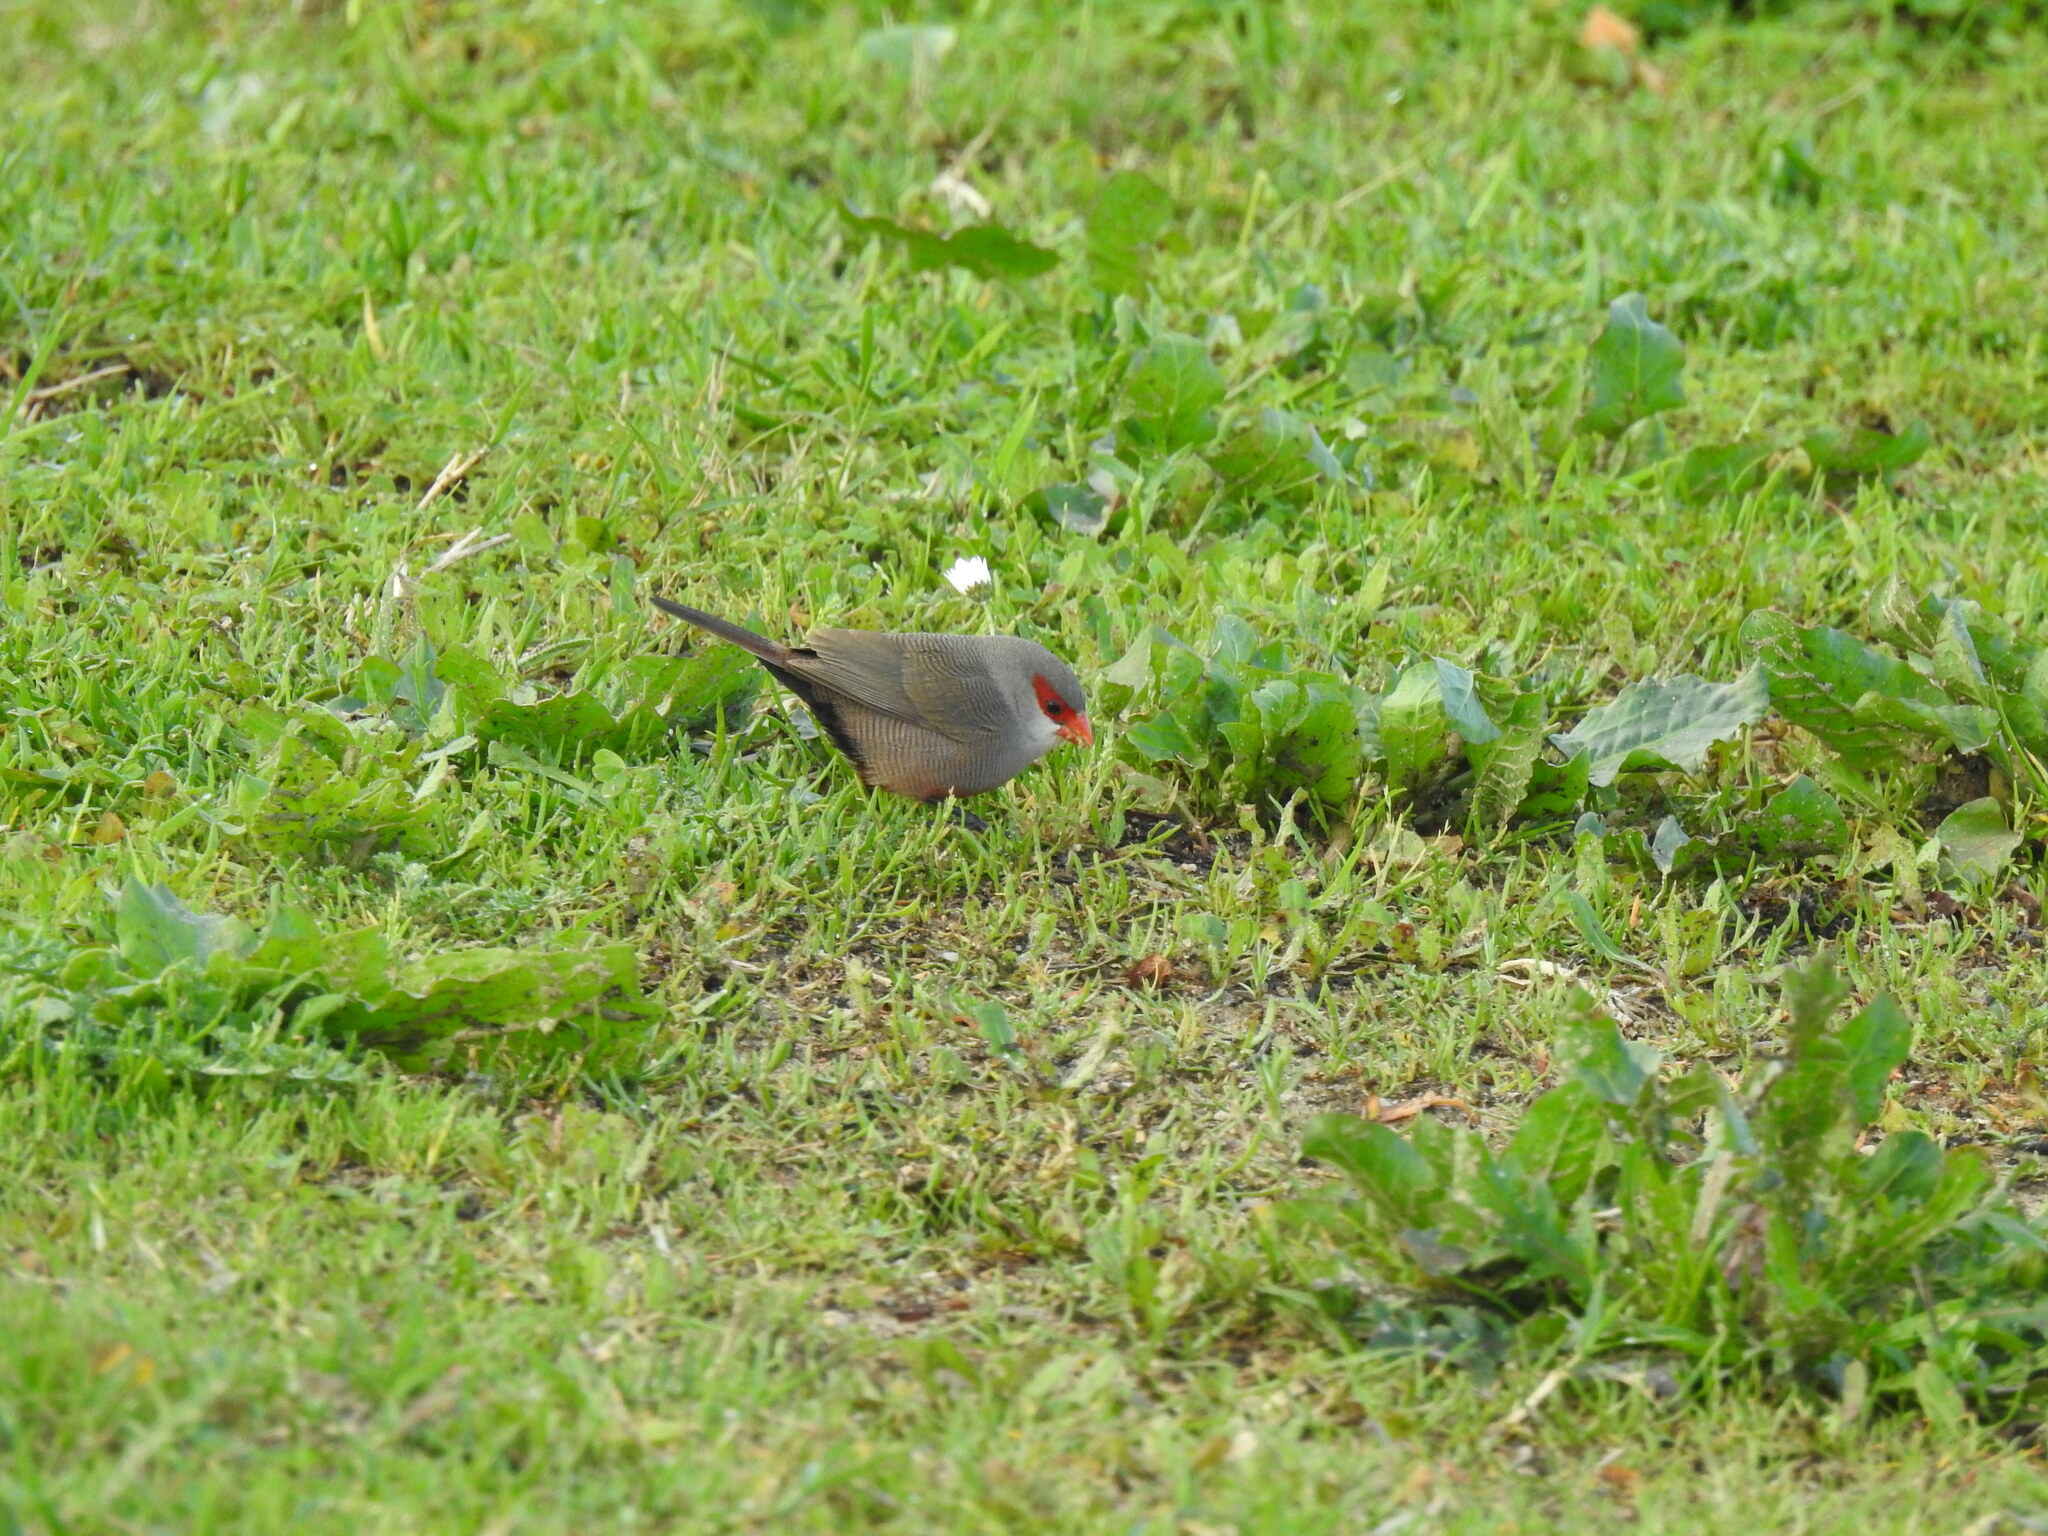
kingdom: Animalia
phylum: Chordata
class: Aves
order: Passeriformes
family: Estrildidae
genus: Estrilda
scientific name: Estrilda astrild
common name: Common waxbill
